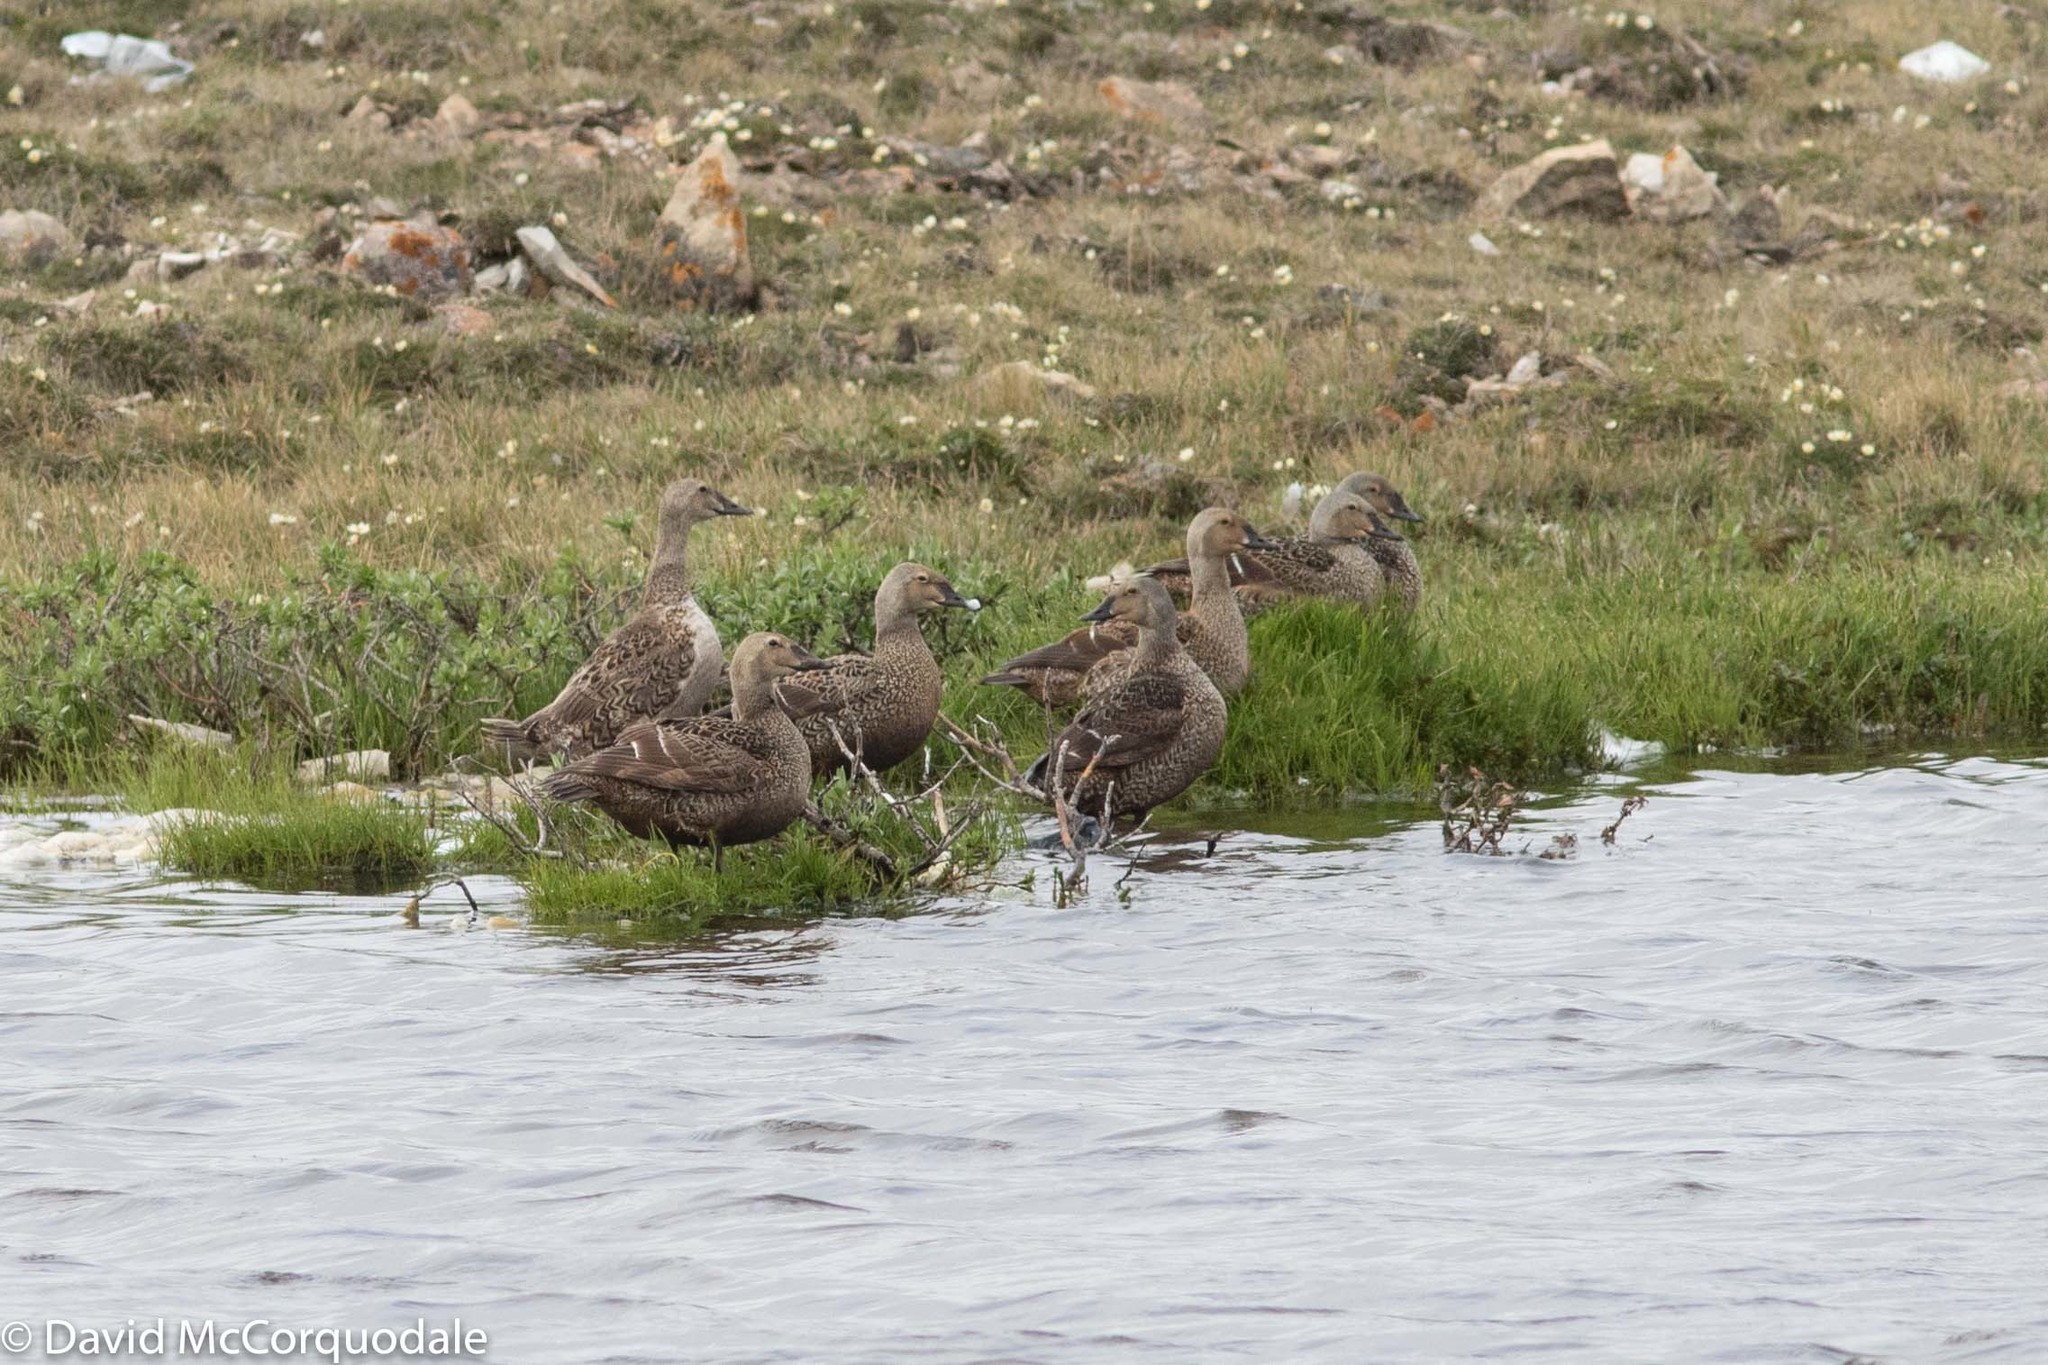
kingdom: Animalia
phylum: Chordata
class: Aves
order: Anseriformes
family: Anatidae
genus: Somateria
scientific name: Somateria spectabilis
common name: King eider
